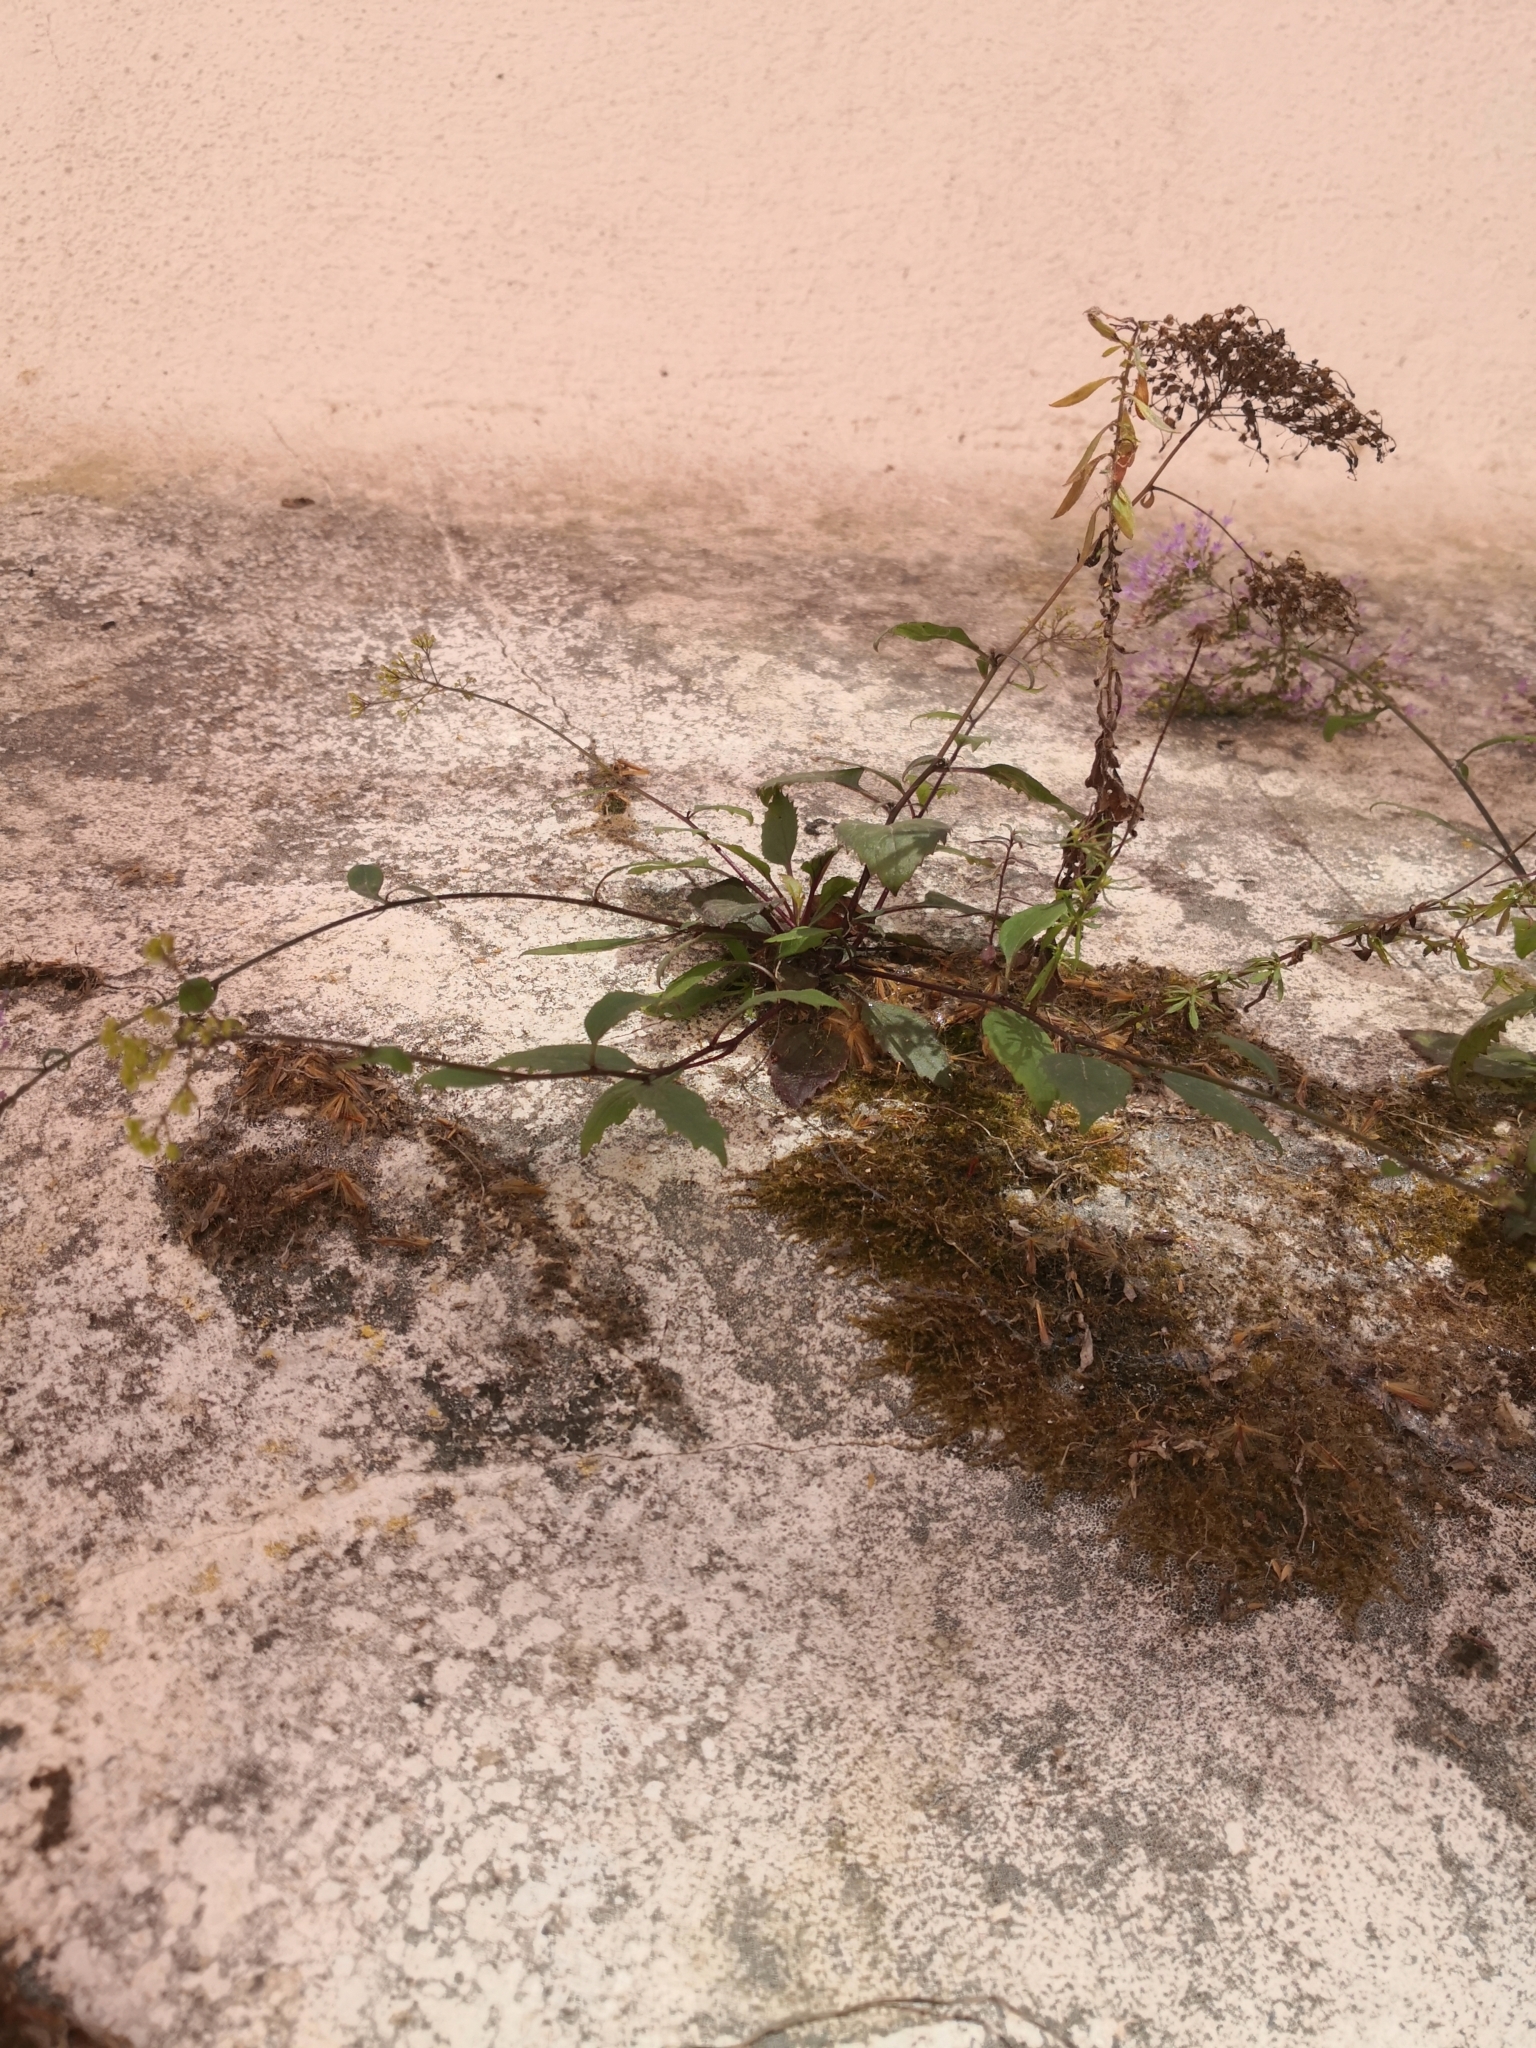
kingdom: Plantae
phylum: Tracheophyta
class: Magnoliopsida
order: Asterales
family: Campanulaceae
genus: Trachelium
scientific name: Trachelium caeruleum
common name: Throatwort
